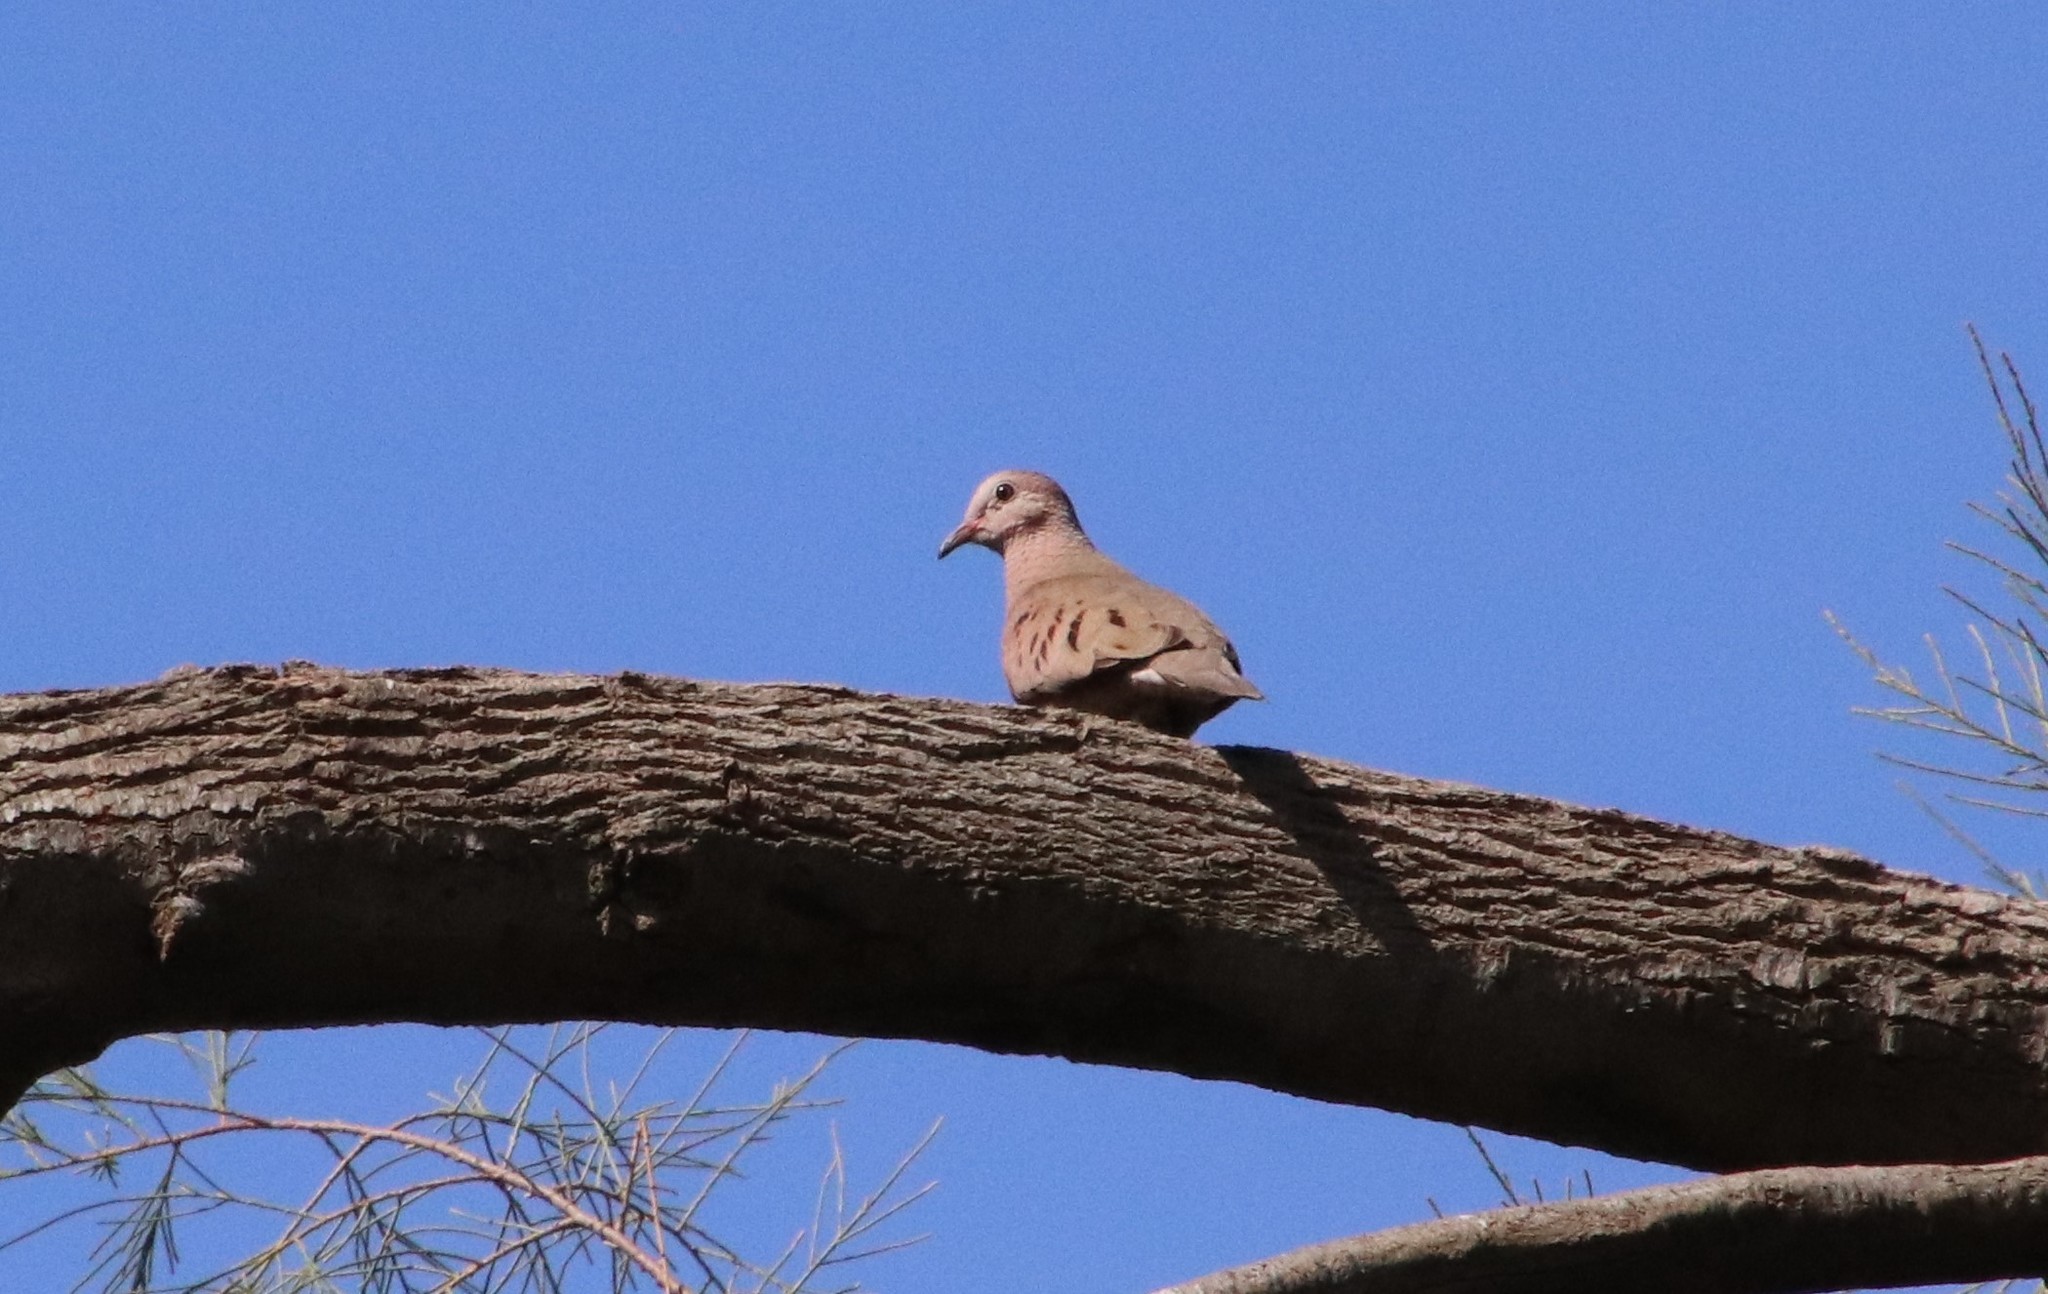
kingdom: Animalia
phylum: Chordata
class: Aves
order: Columbiformes
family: Columbidae
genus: Columbina
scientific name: Columbina passerina
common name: Common ground-dove
